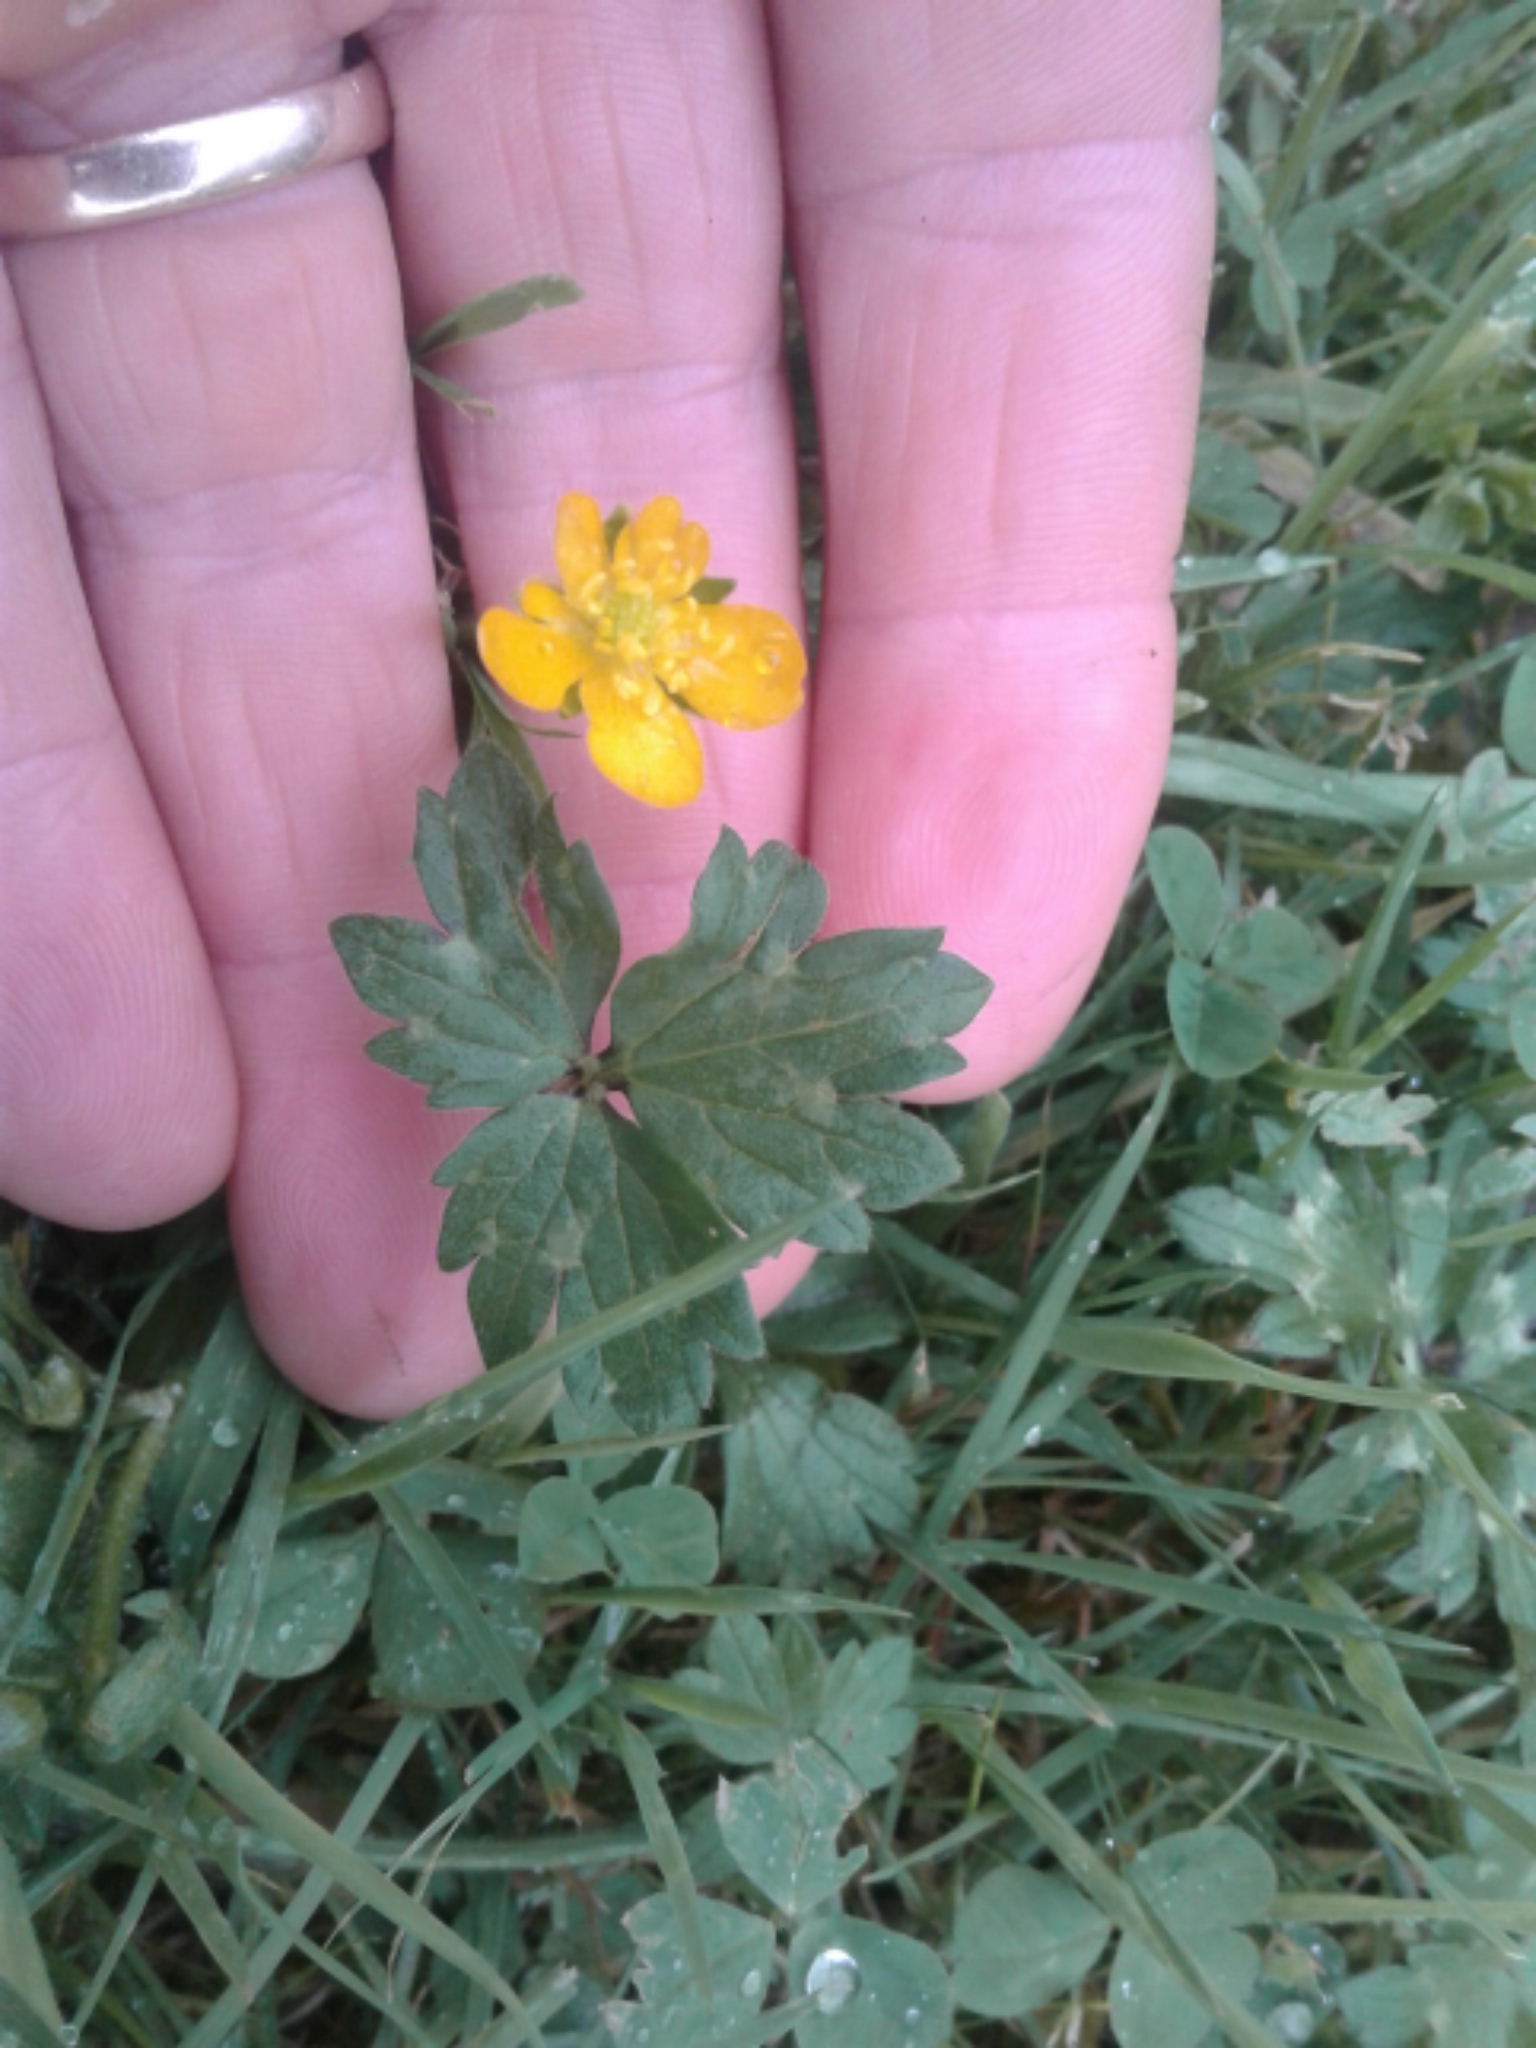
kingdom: Plantae
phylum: Tracheophyta
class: Magnoliopsida
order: Ranunculales
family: Ranunculaceae
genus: Ranunculus
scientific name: Ranunculus repens
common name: Creeping buttercup
